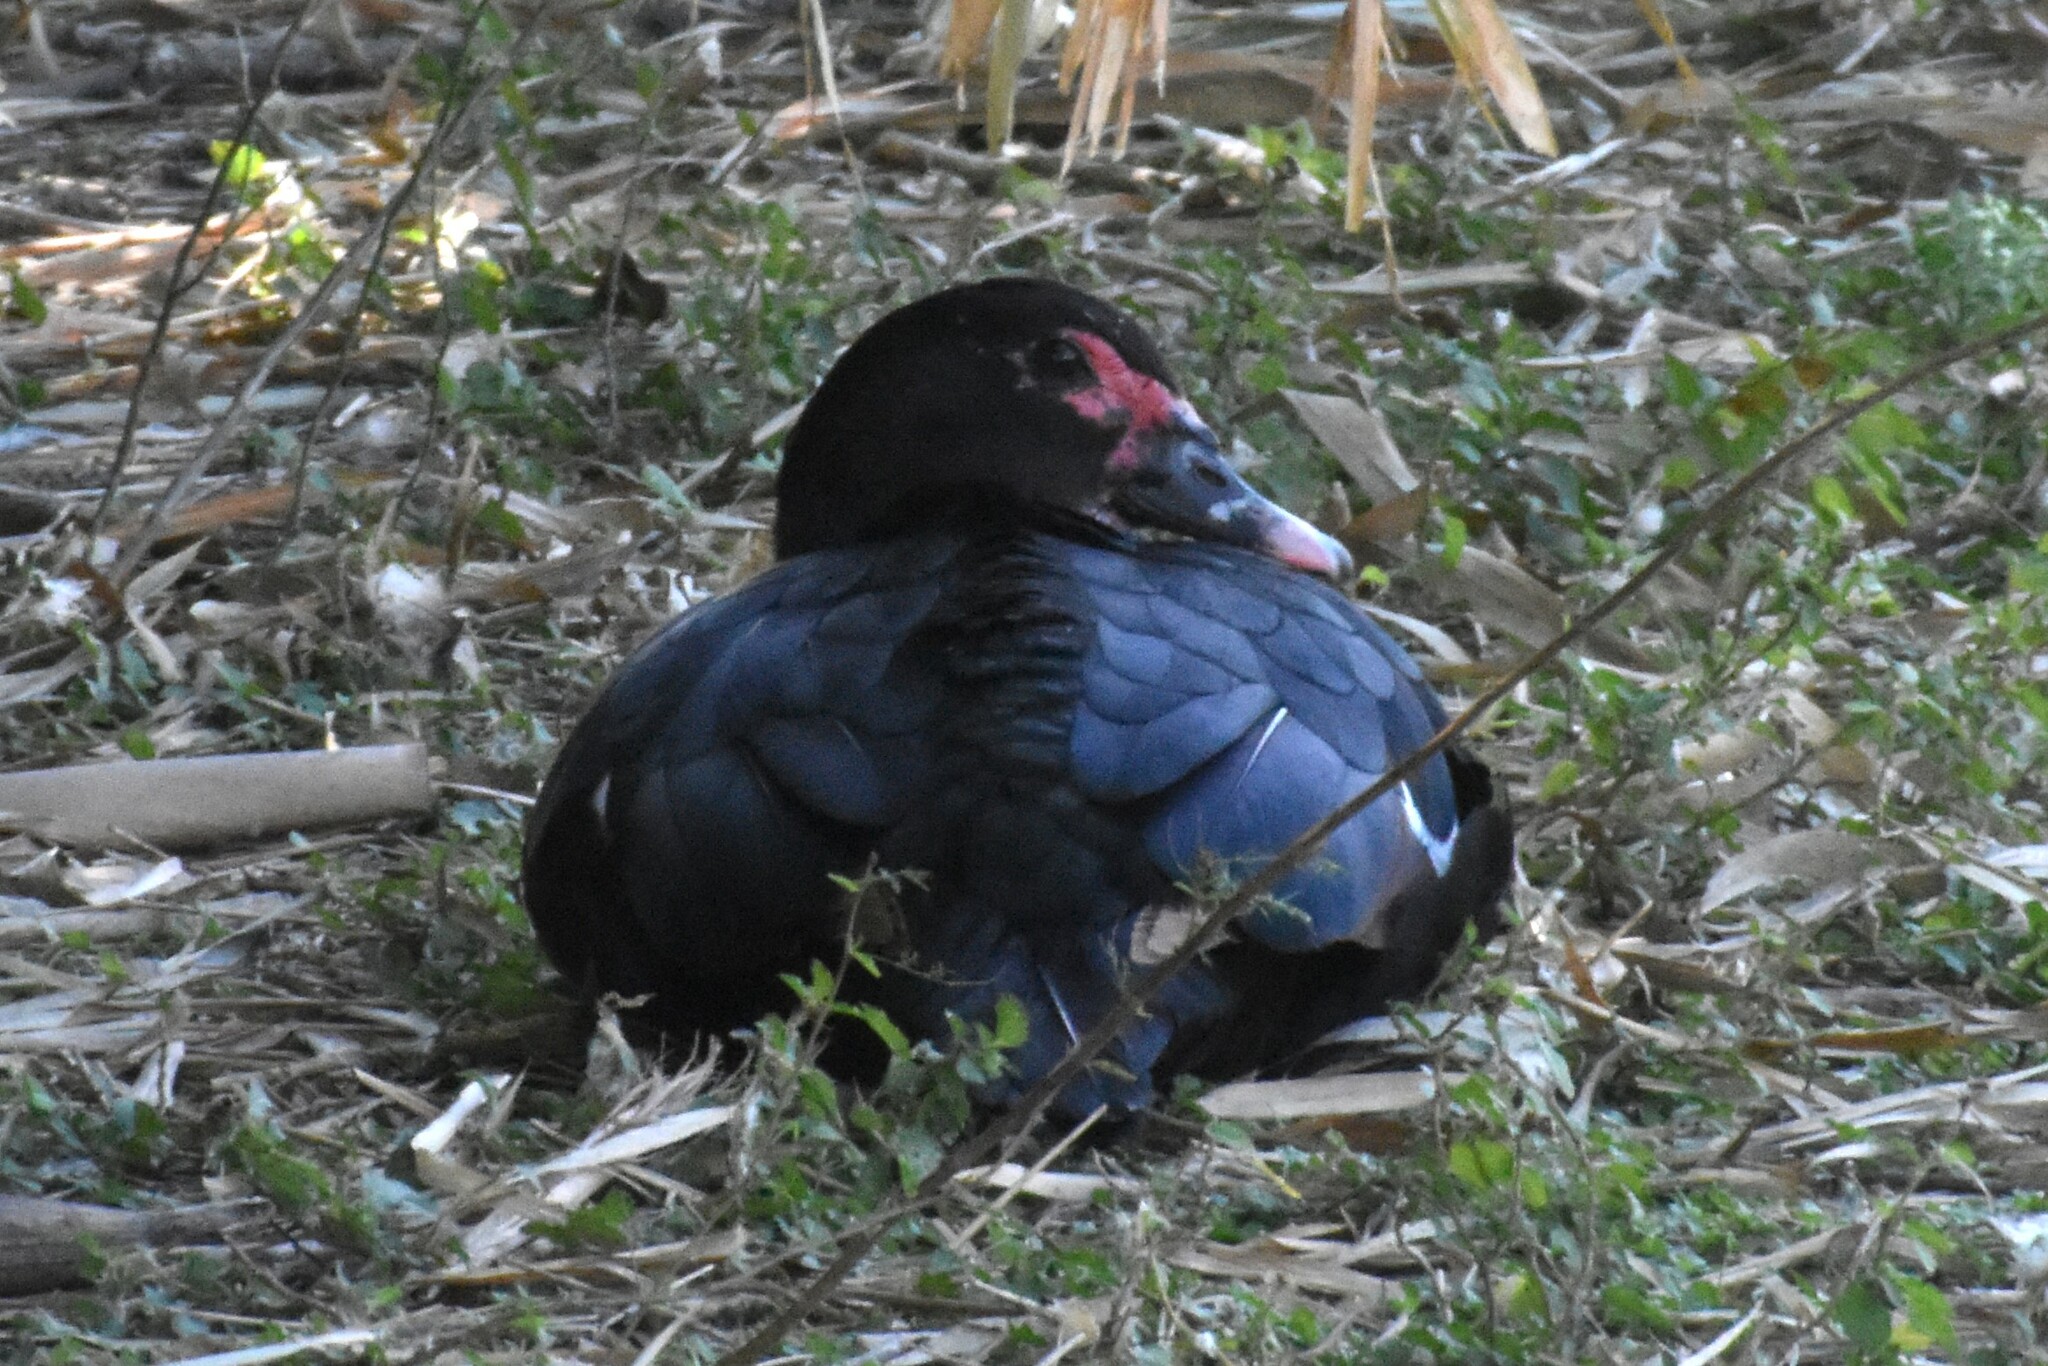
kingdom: Animalia
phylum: Chordata
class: Aves
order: Anseriformes
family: Anatidae
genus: Cairina
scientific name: Cairina moschata
